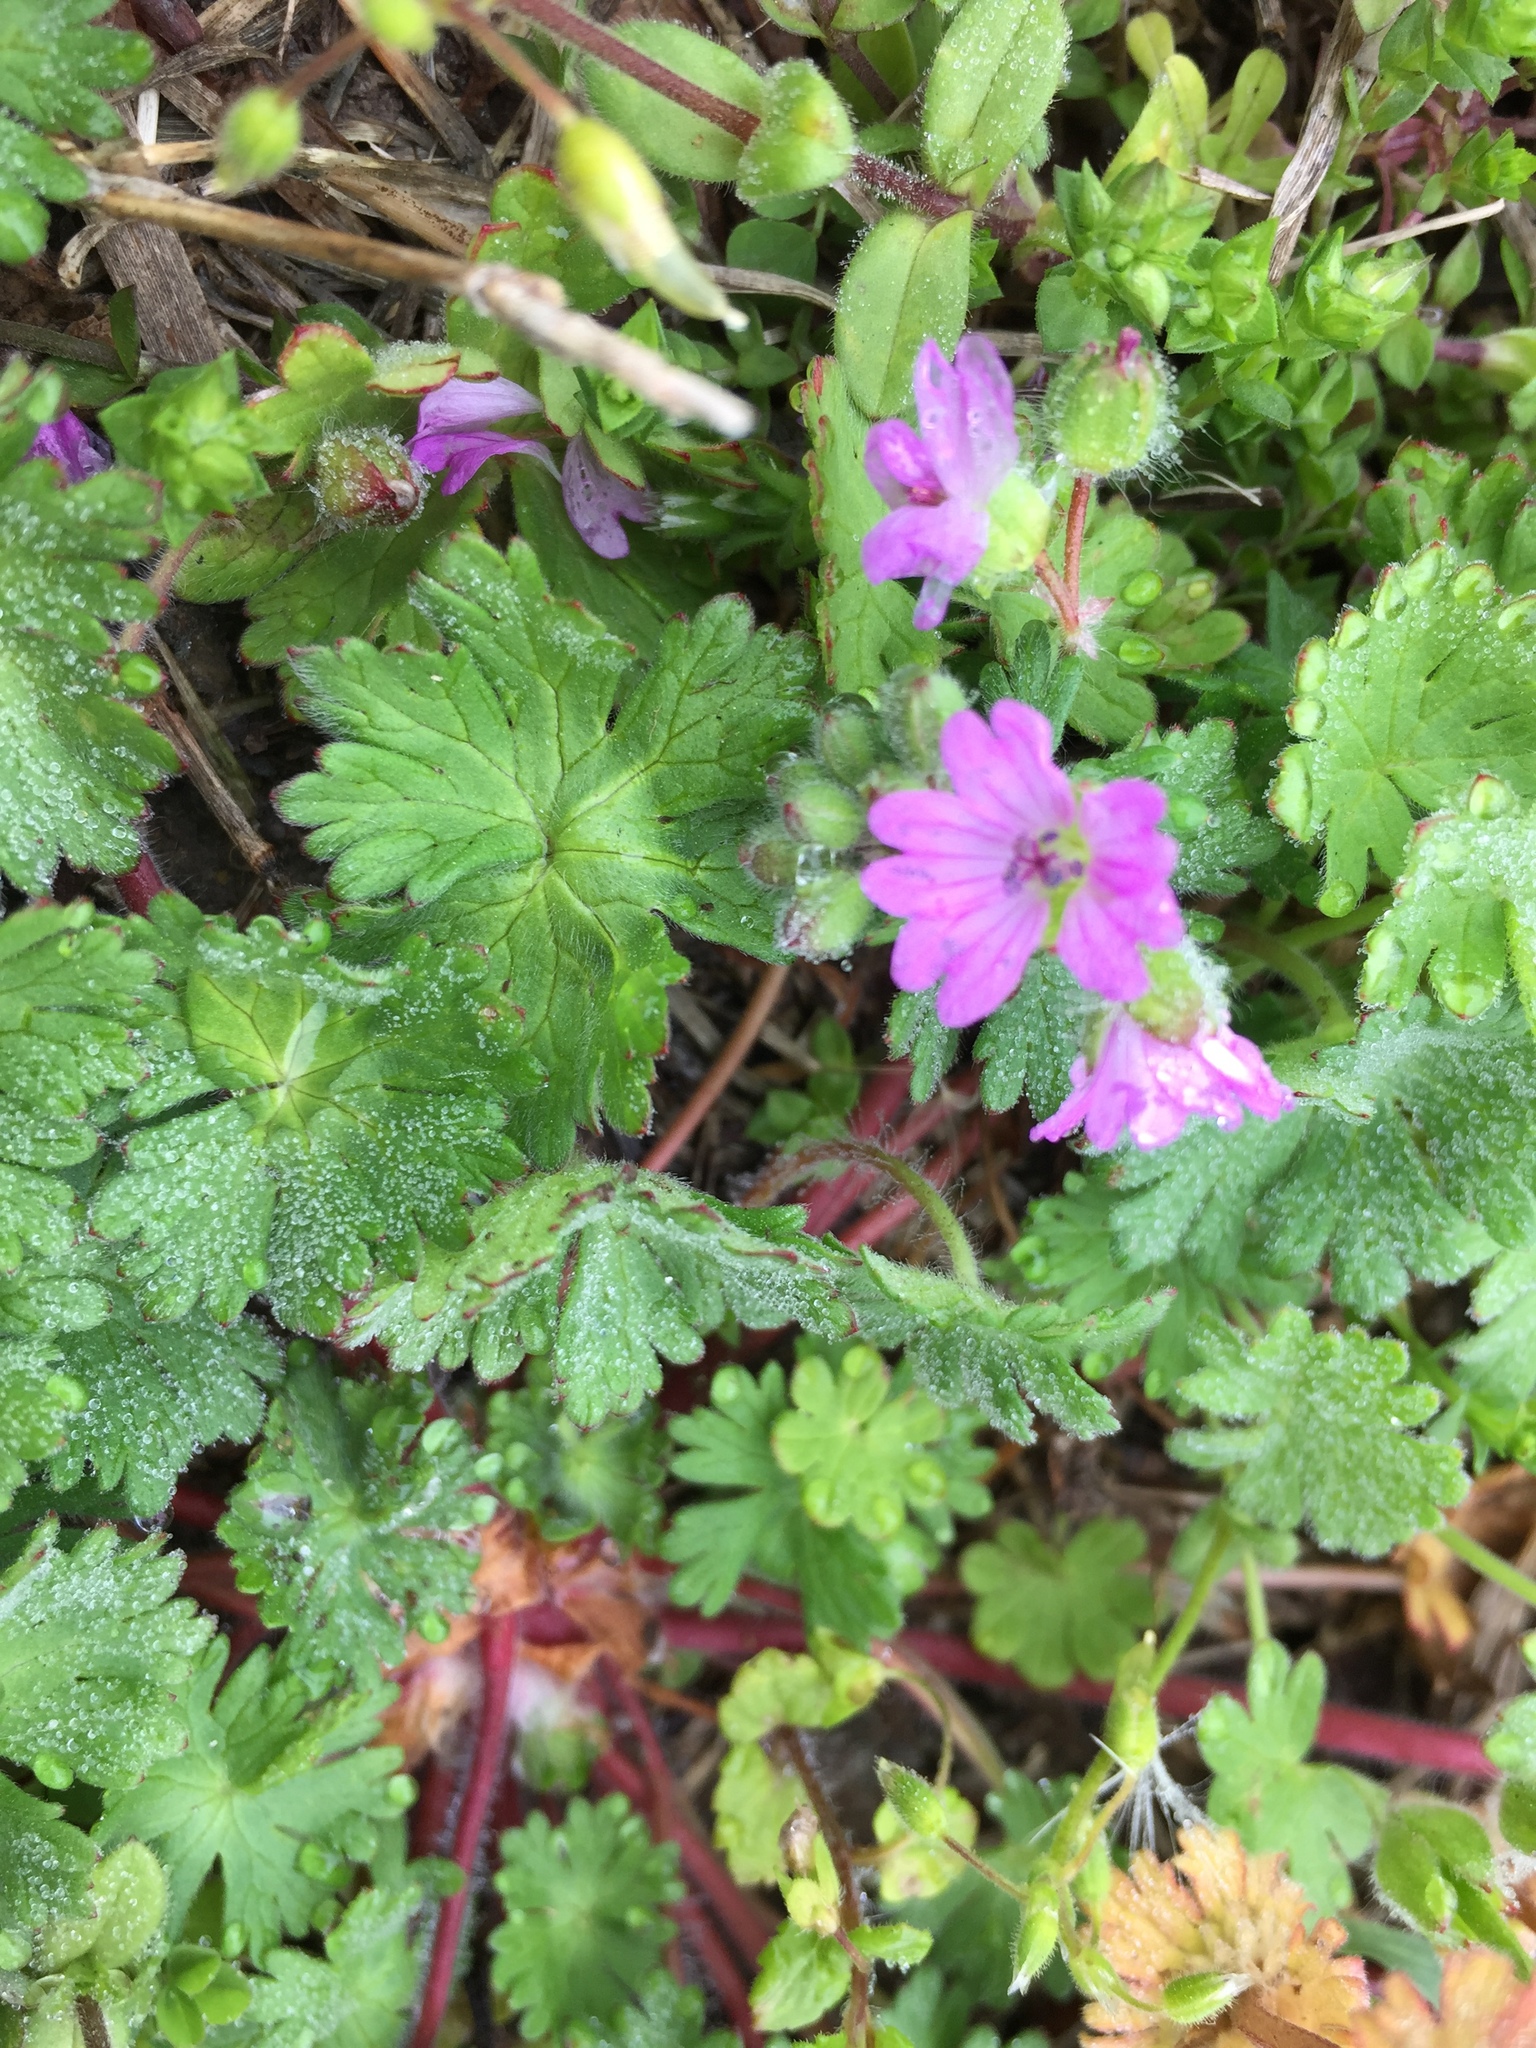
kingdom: Plantae
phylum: Tracheophyta
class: Magnoliopsida
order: Geraniales
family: Geraniaceae
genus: Geranium
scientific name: Geranium molle
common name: Dove's-foot crane's-bill
